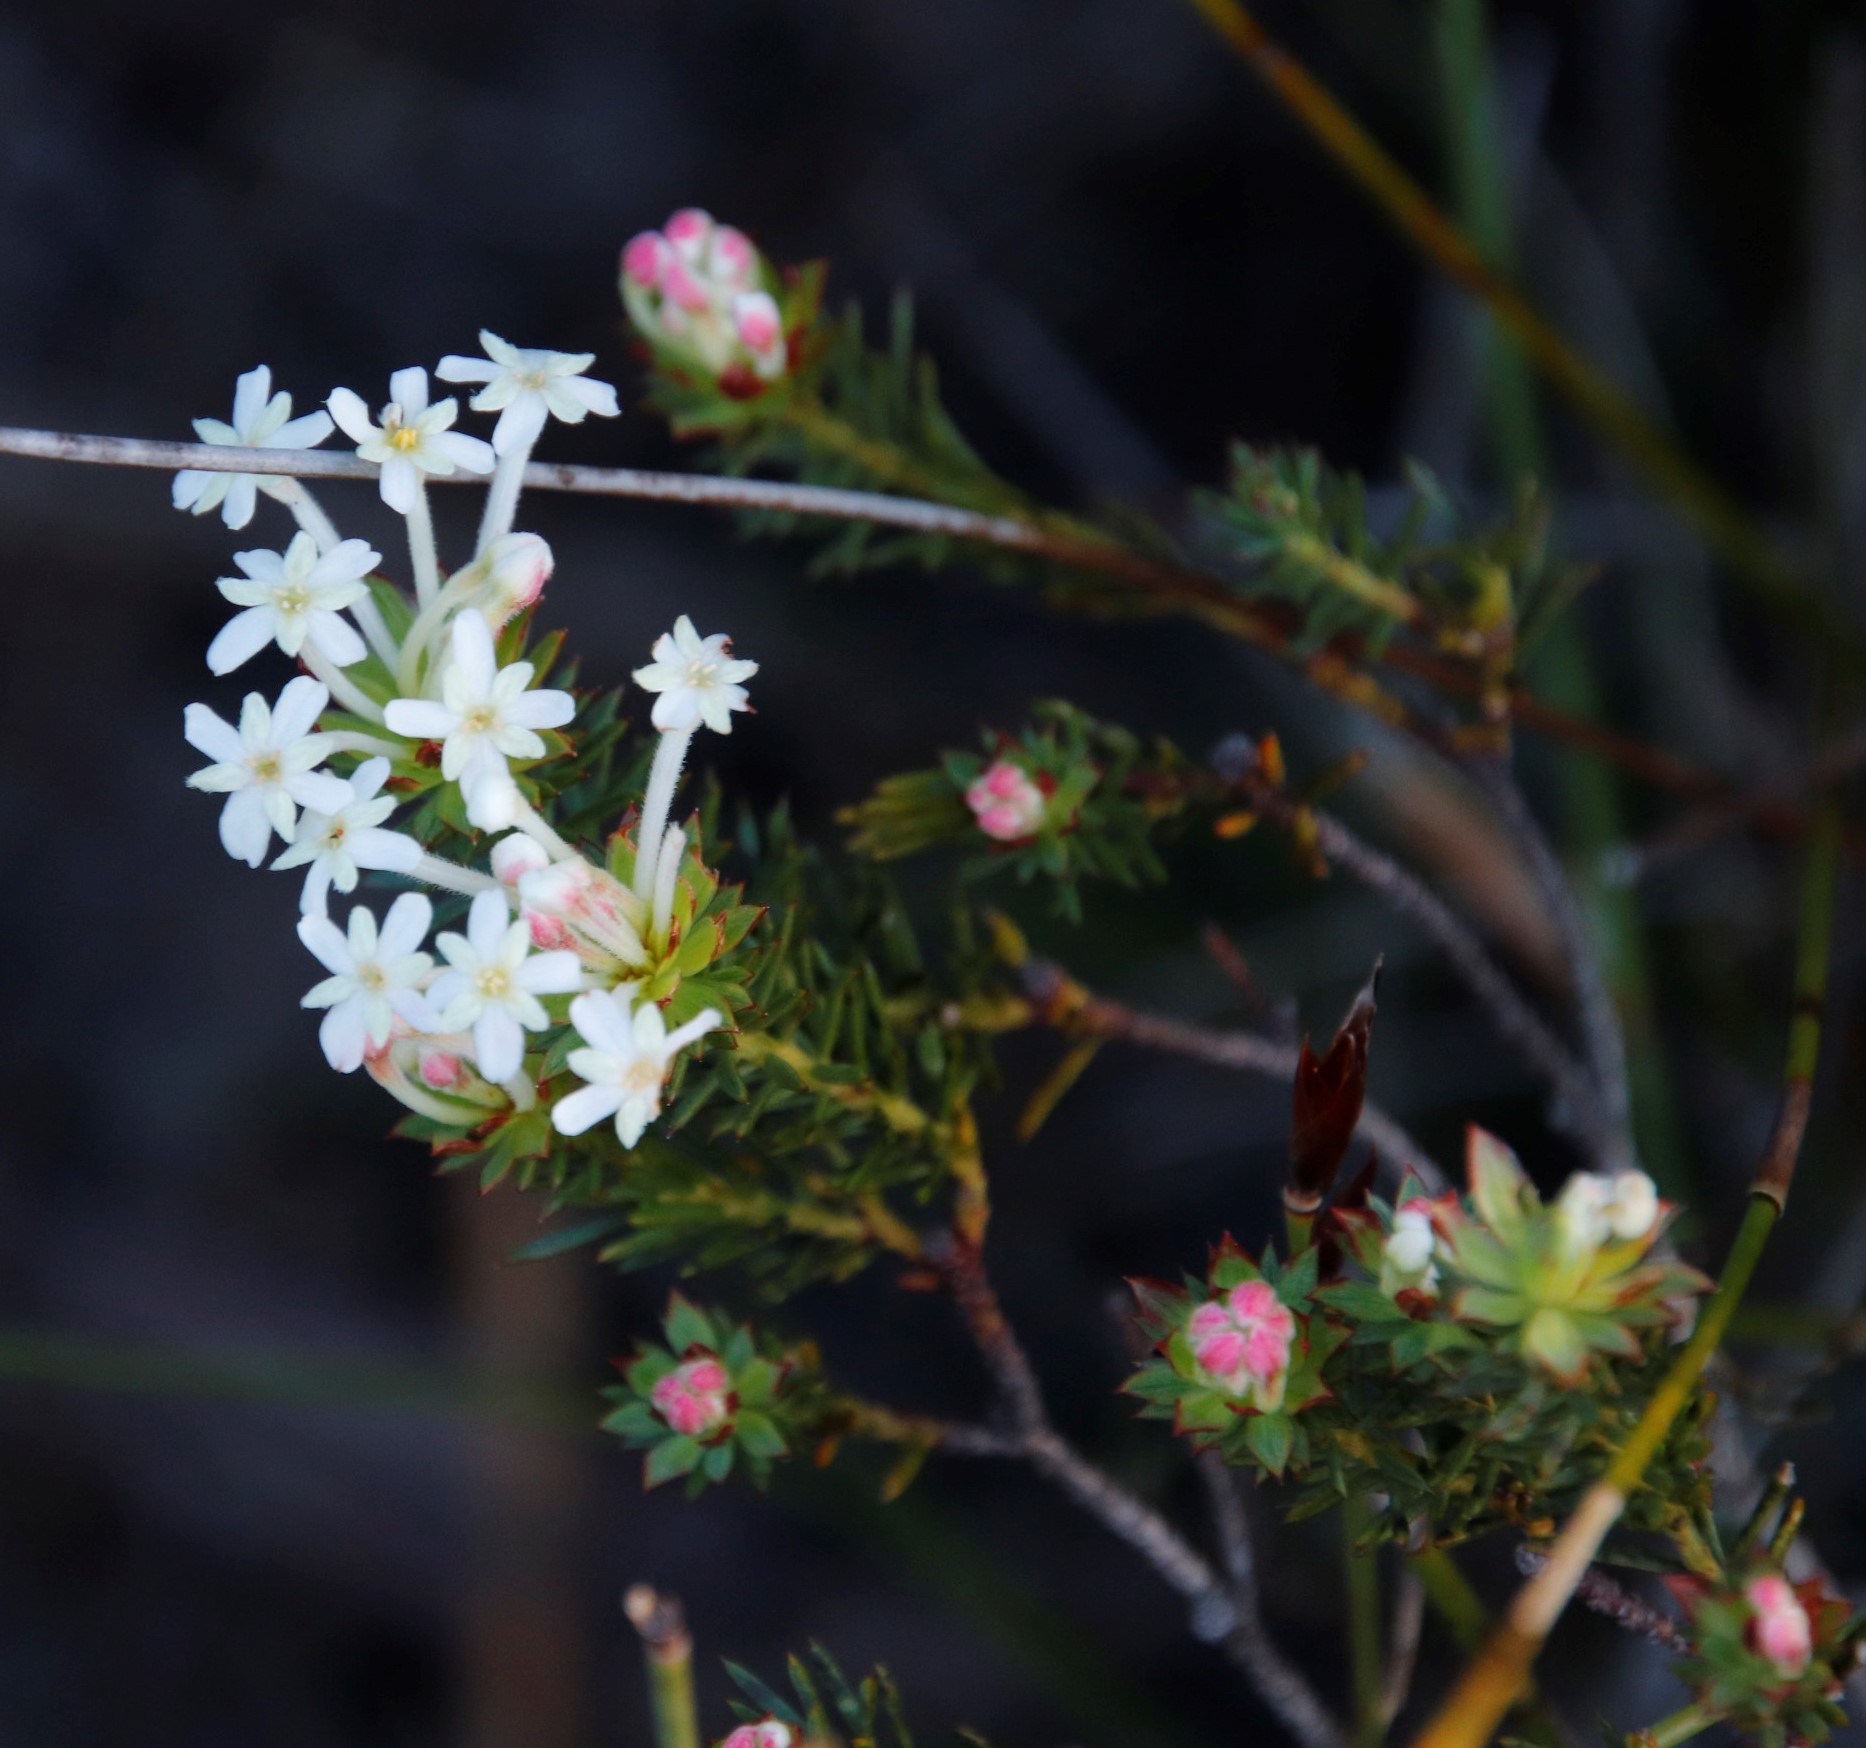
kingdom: Plantae
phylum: Tracheophyta
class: Magnoliopsida
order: Malvales
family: Thymelaeaceae
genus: Gnidia
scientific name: Gnidia pinifolia
